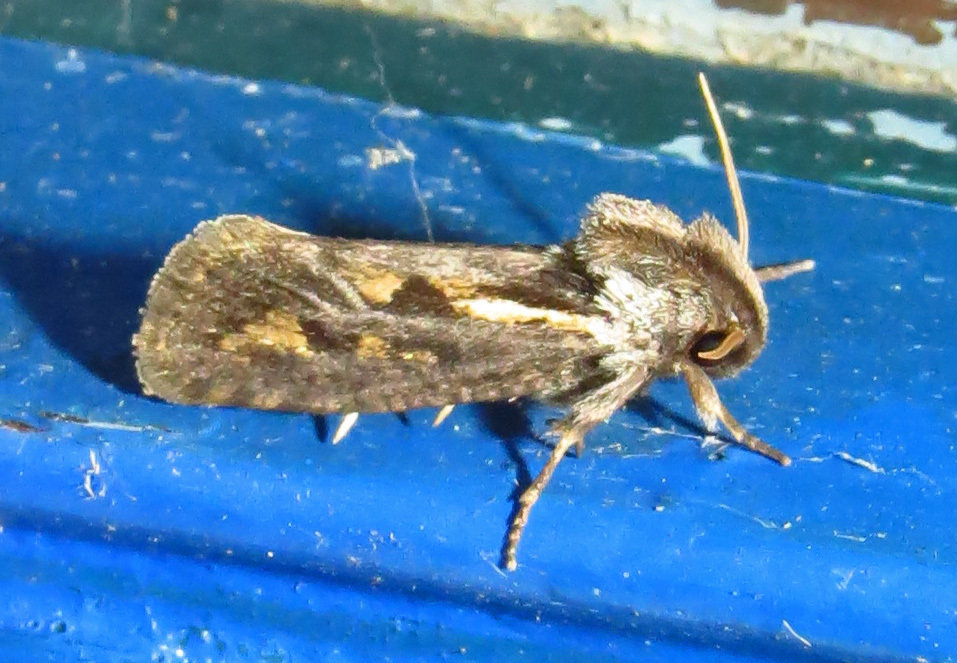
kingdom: Animalia
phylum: Arthropoda
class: Insecta
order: Lepidoptera
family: Tineidae
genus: Acrolophus
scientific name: Acrolophus popeanella
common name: Clemens' grass tubeworm moth
